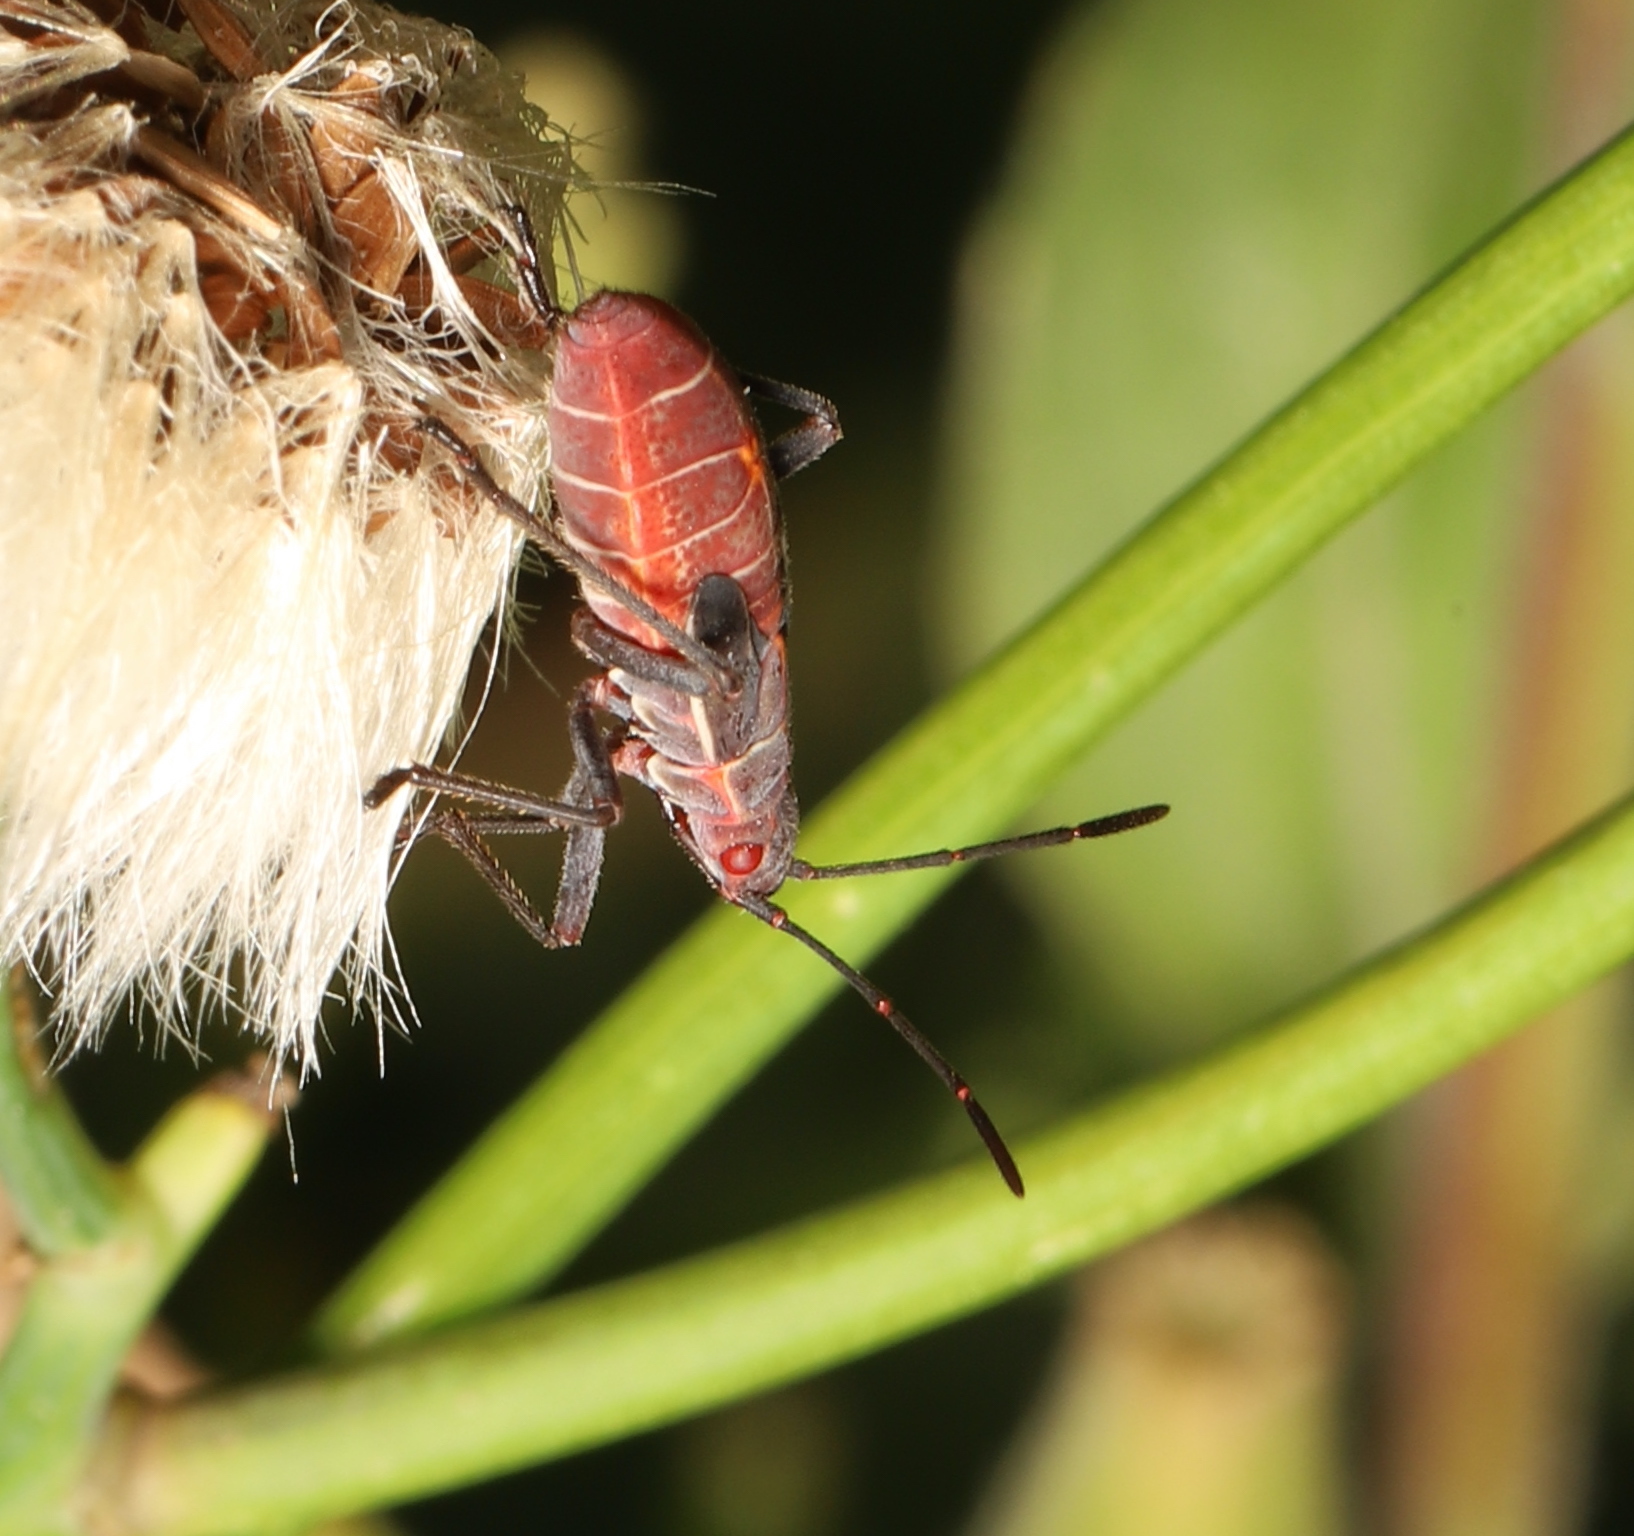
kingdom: Animalia
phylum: Arthropoda
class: Insecta
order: Hemiptera
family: Rhopalidae
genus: Boisea
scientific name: Boisea rubrolineata
